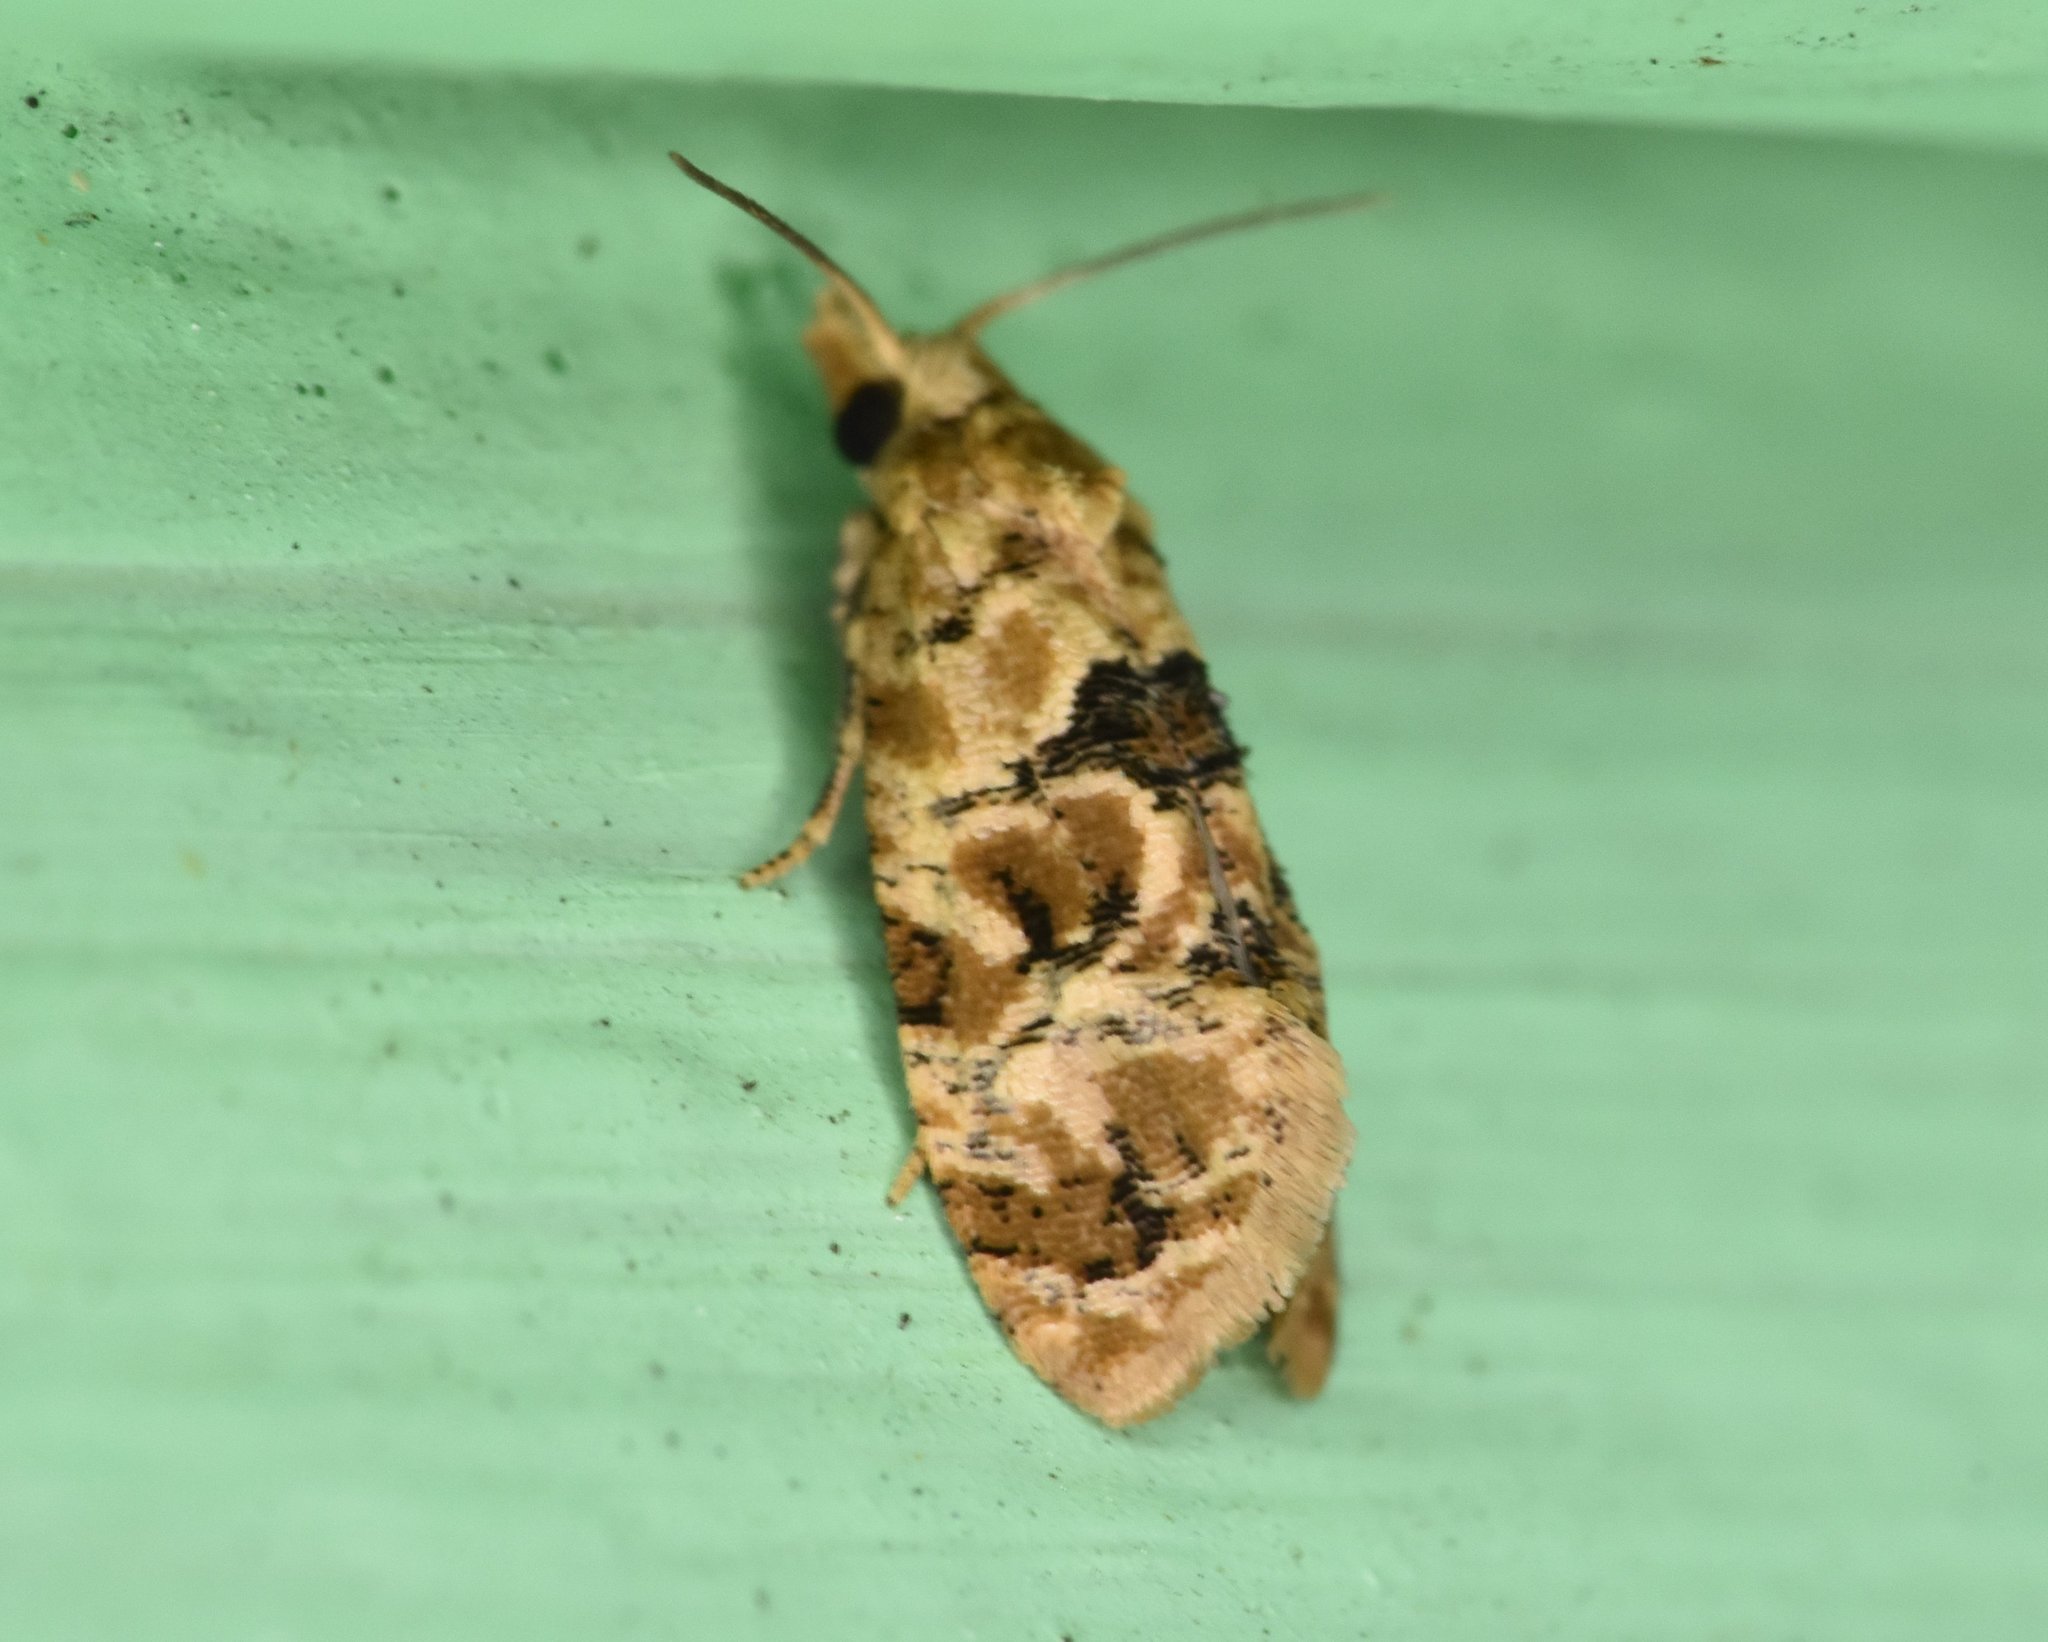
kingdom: Animalia
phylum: Arthropoda
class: Insecta
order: Lepidoptera
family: Tortricidae
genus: Lorita
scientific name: Lorita scarificata
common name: Chrysanthemum flower borer
